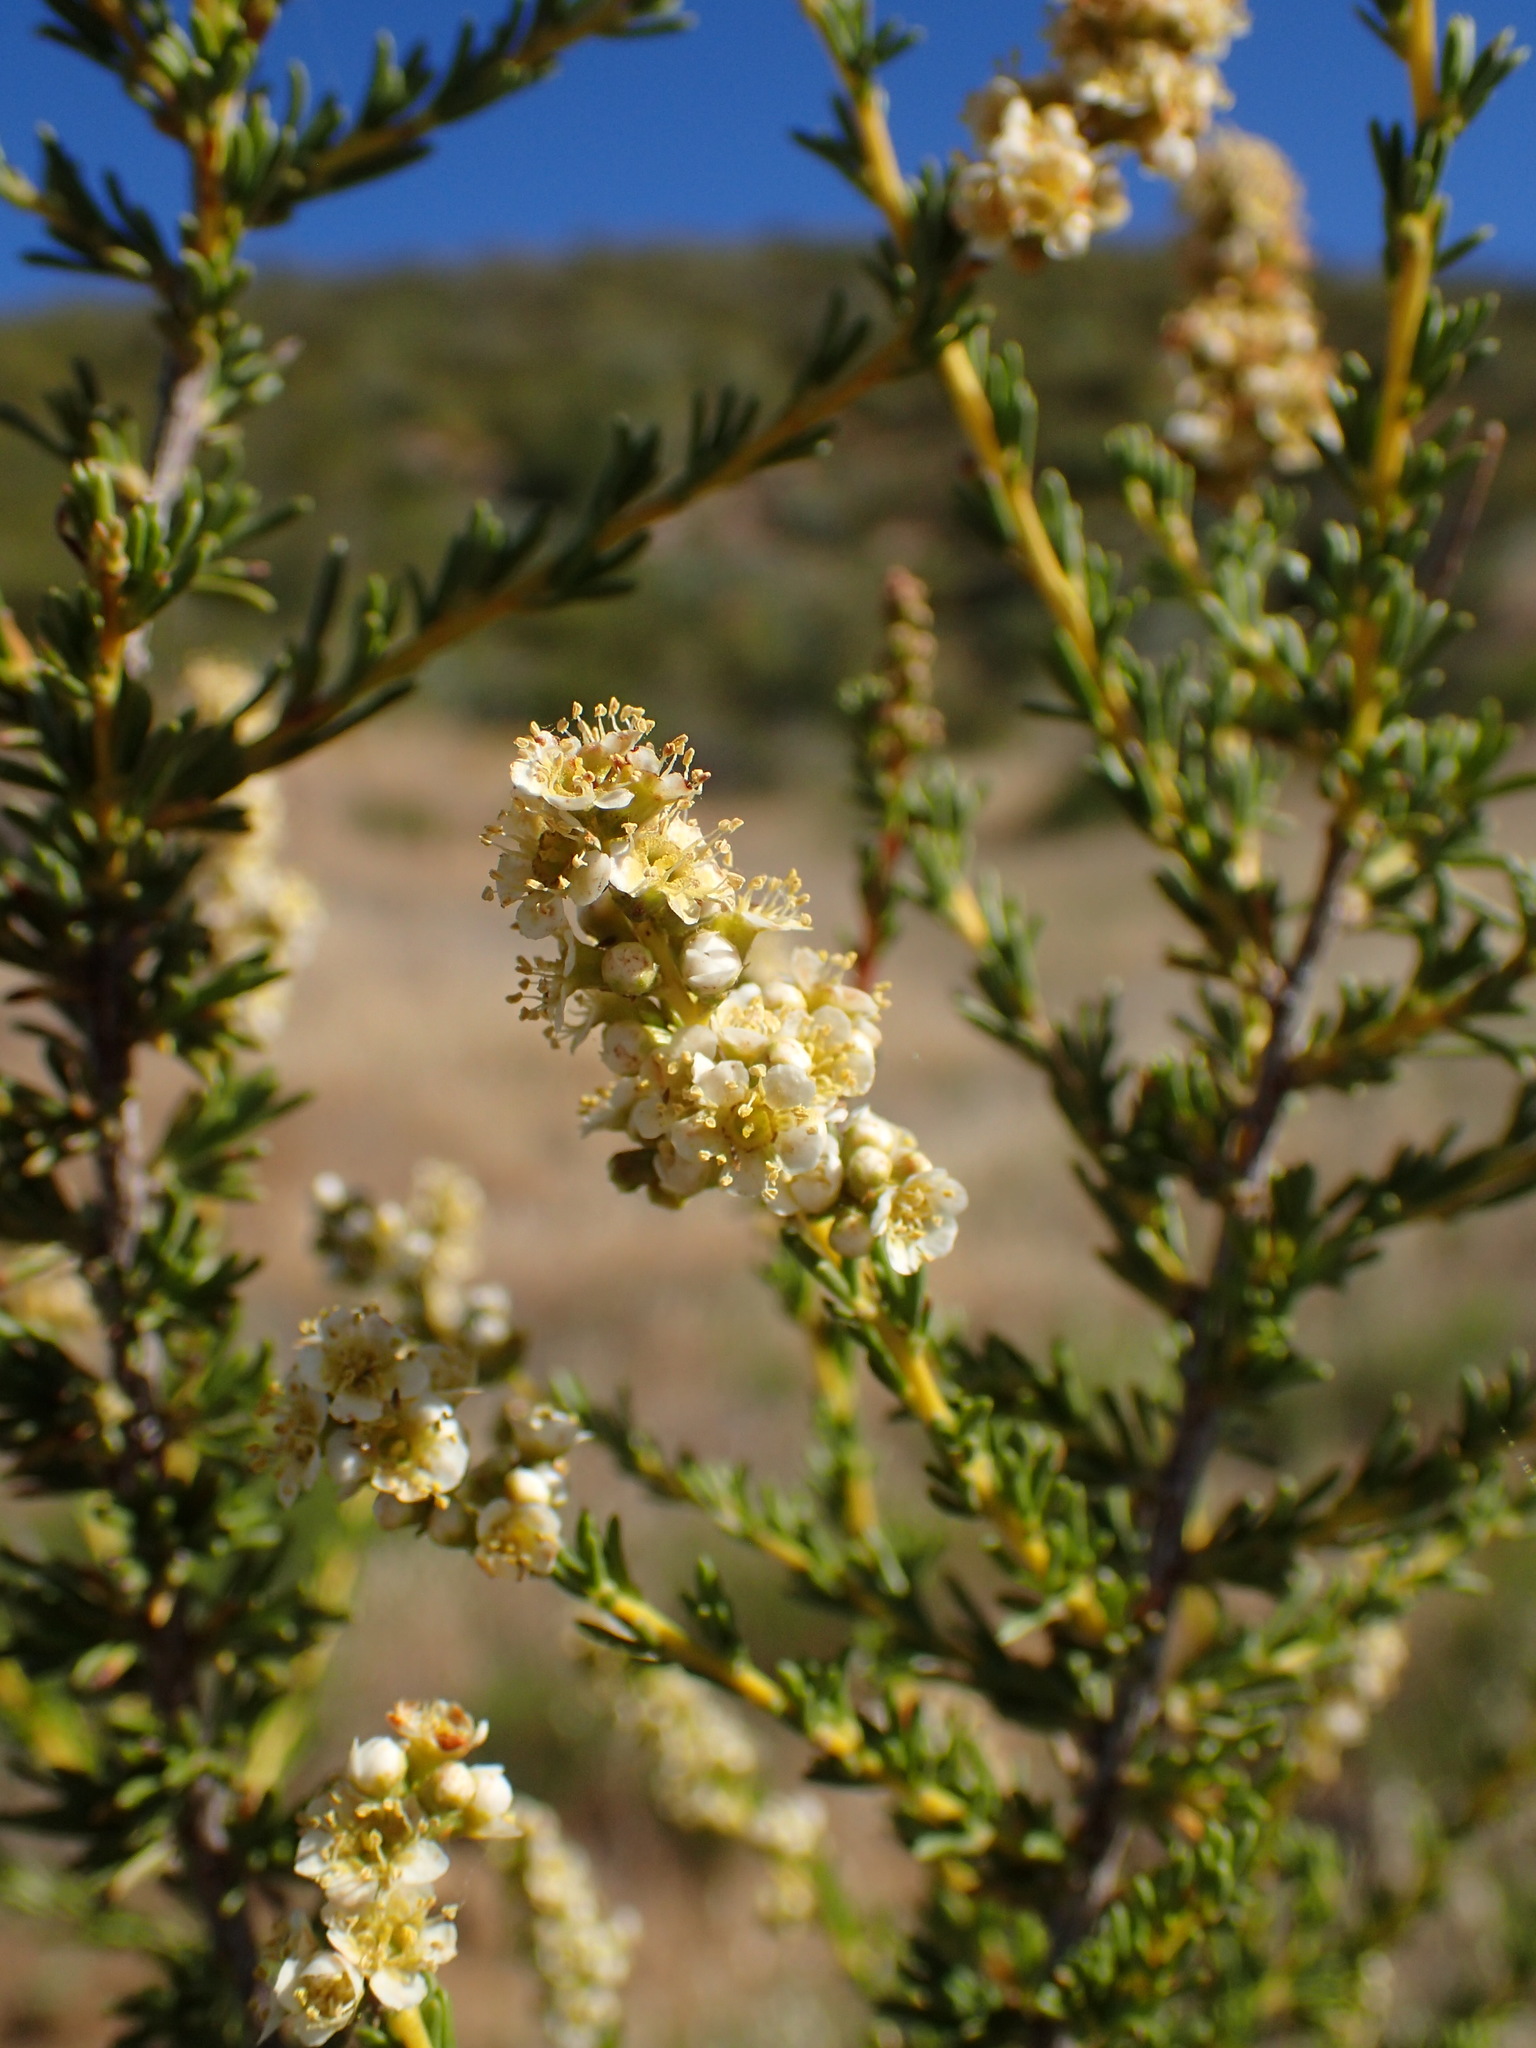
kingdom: Plantae
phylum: Tracheophyta
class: Magnoliopsida
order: Rosales
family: Rosaceae
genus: Adenostoma
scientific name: Adenostoma fasciculatum
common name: Chamise
